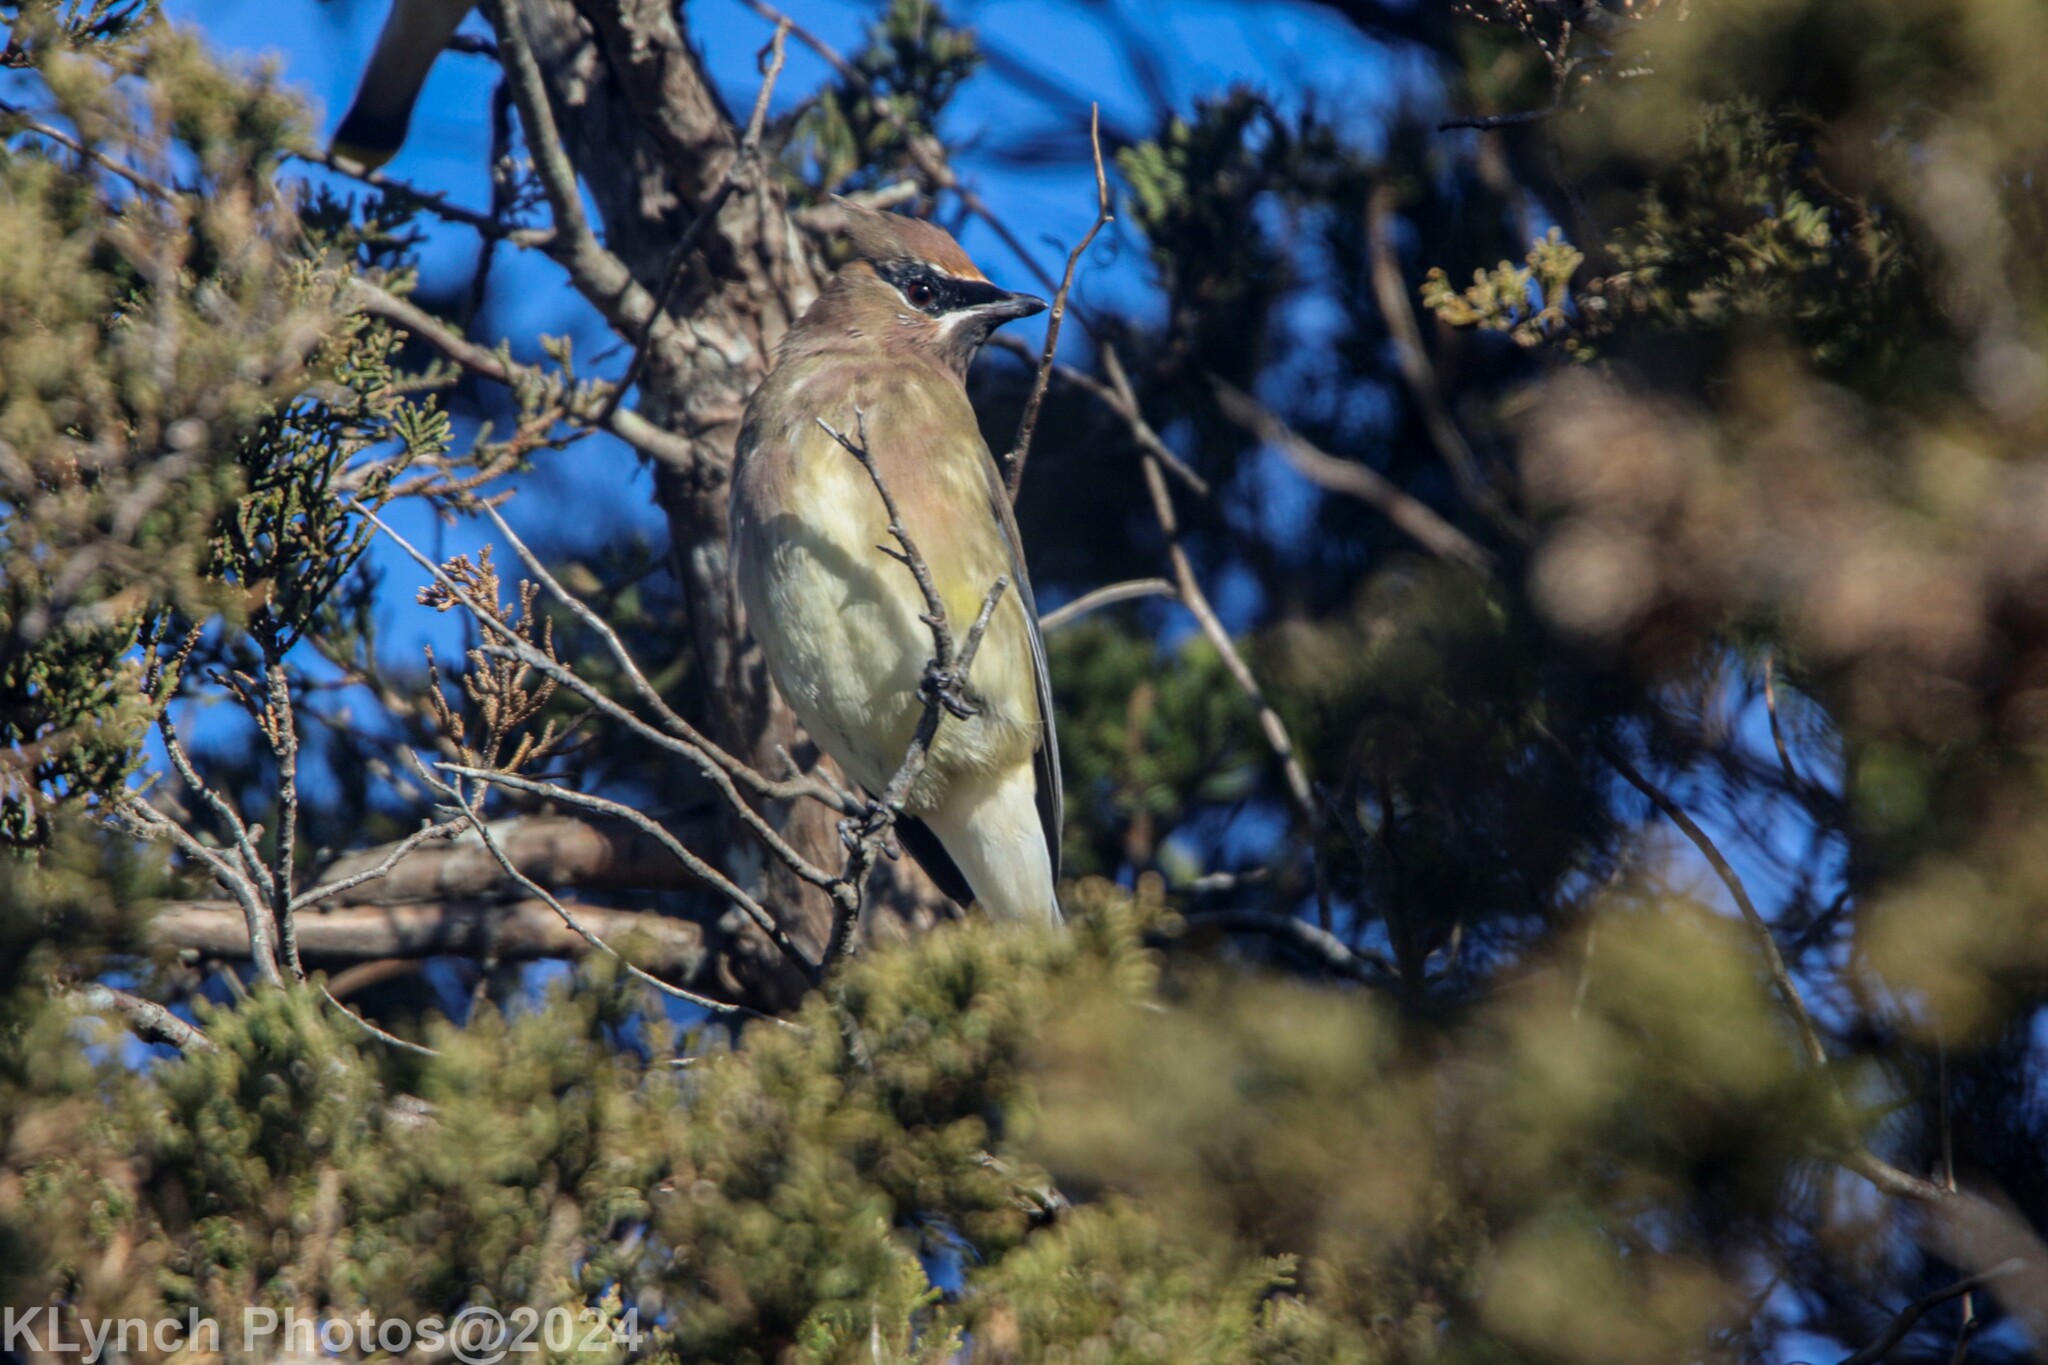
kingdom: Animalia
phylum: Chordata
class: Aves
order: Passeriformes
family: Bombycillidae
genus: Bombycilla
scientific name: Bombycilla cedrorum
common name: Cedar waxwing
